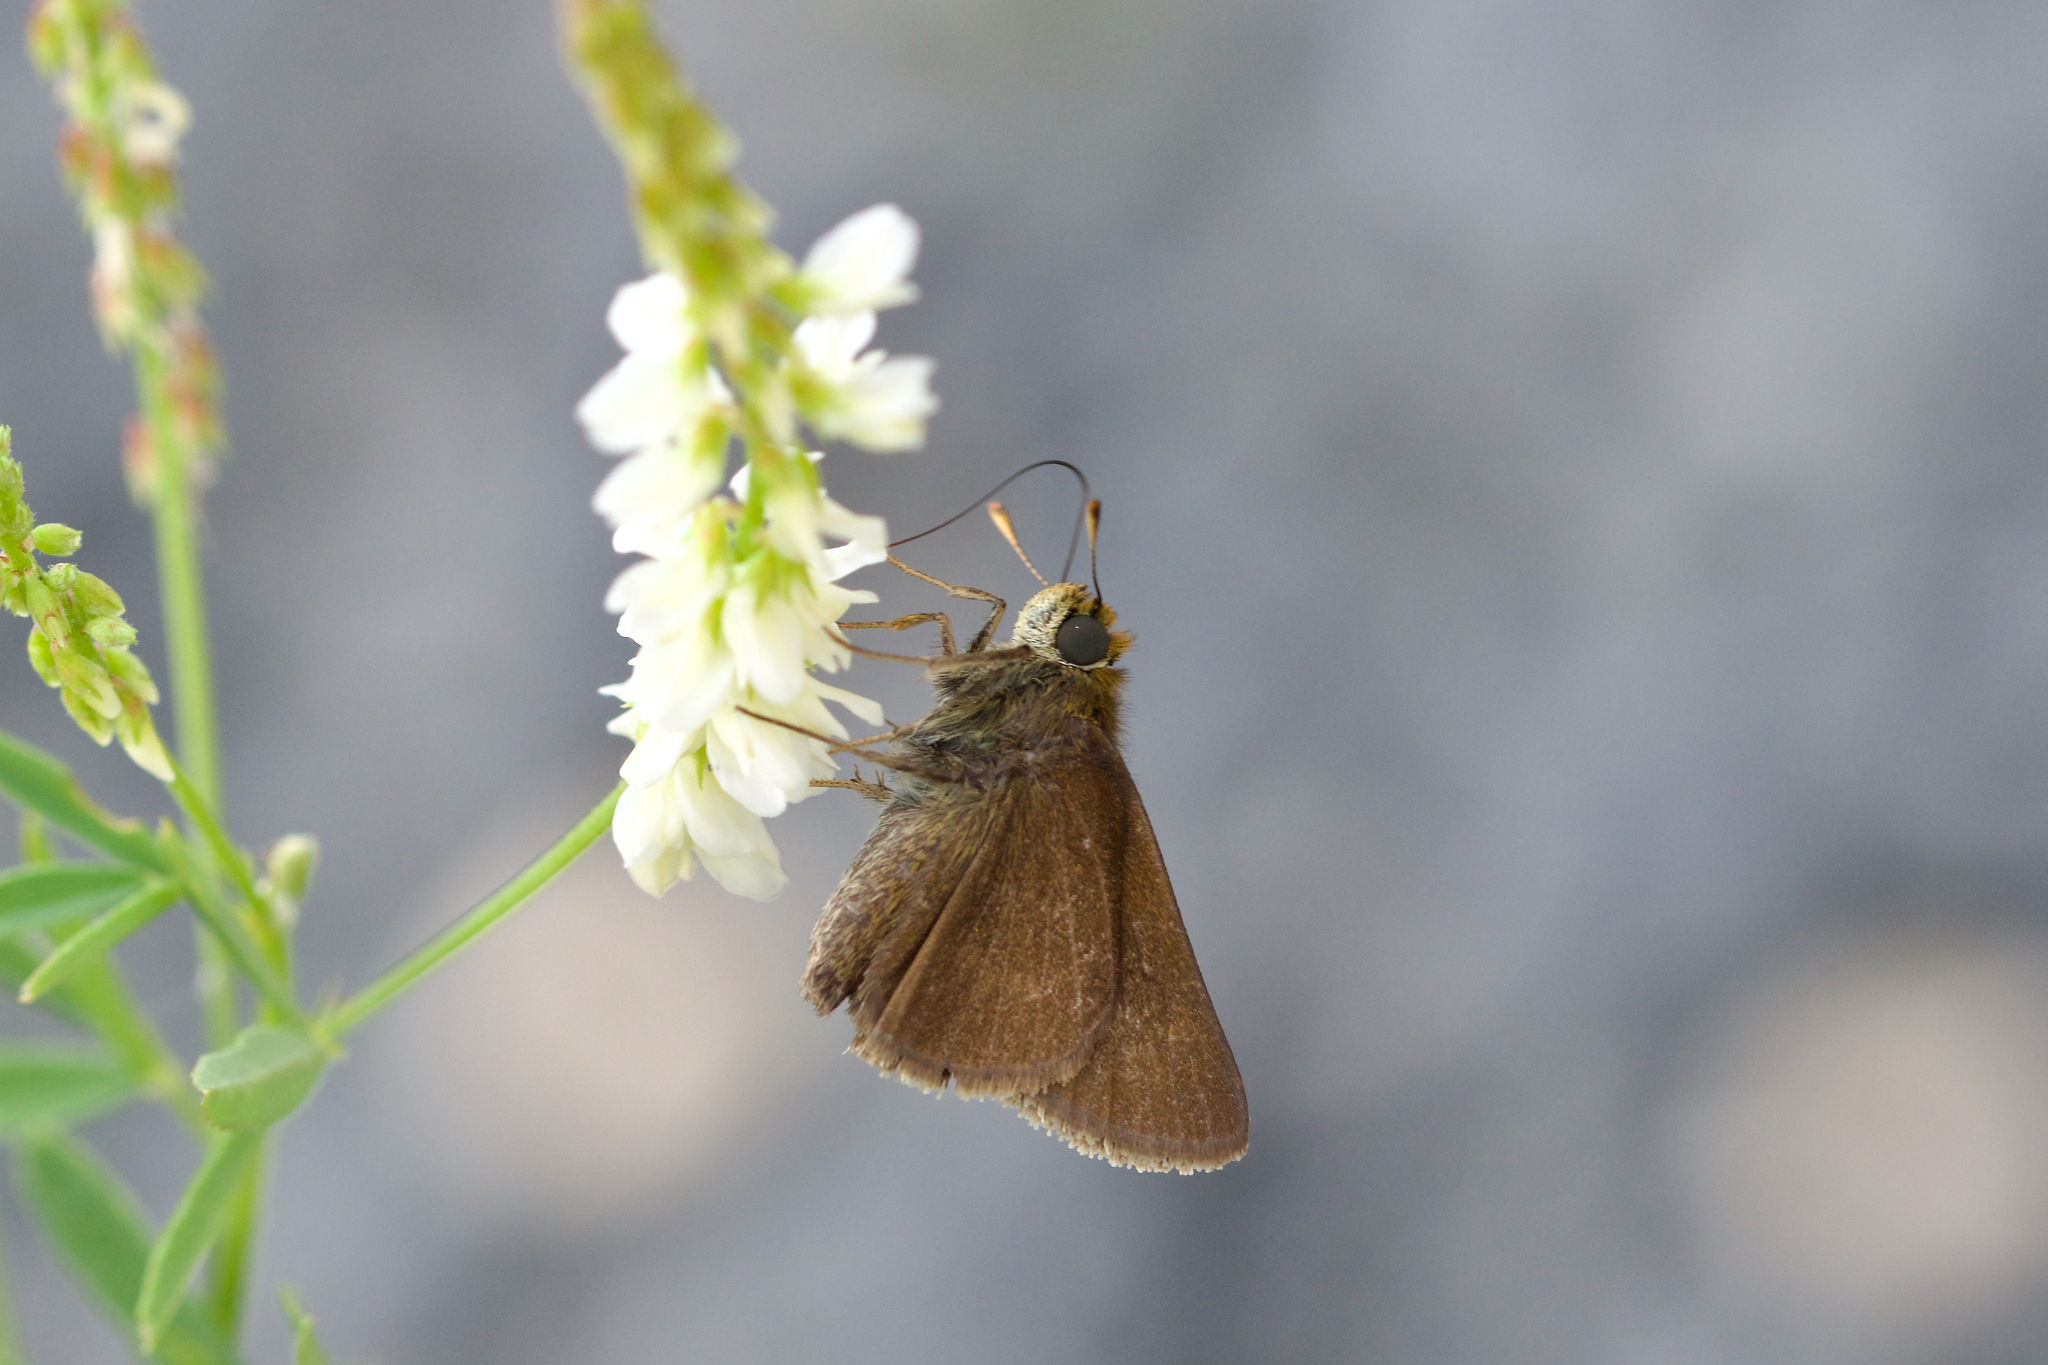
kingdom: Animalia
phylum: Arthropoda
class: Insecta
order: Lepidoptera
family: Hesperiidae
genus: Euphyes
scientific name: Euphyes vestris
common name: Dun skipper
